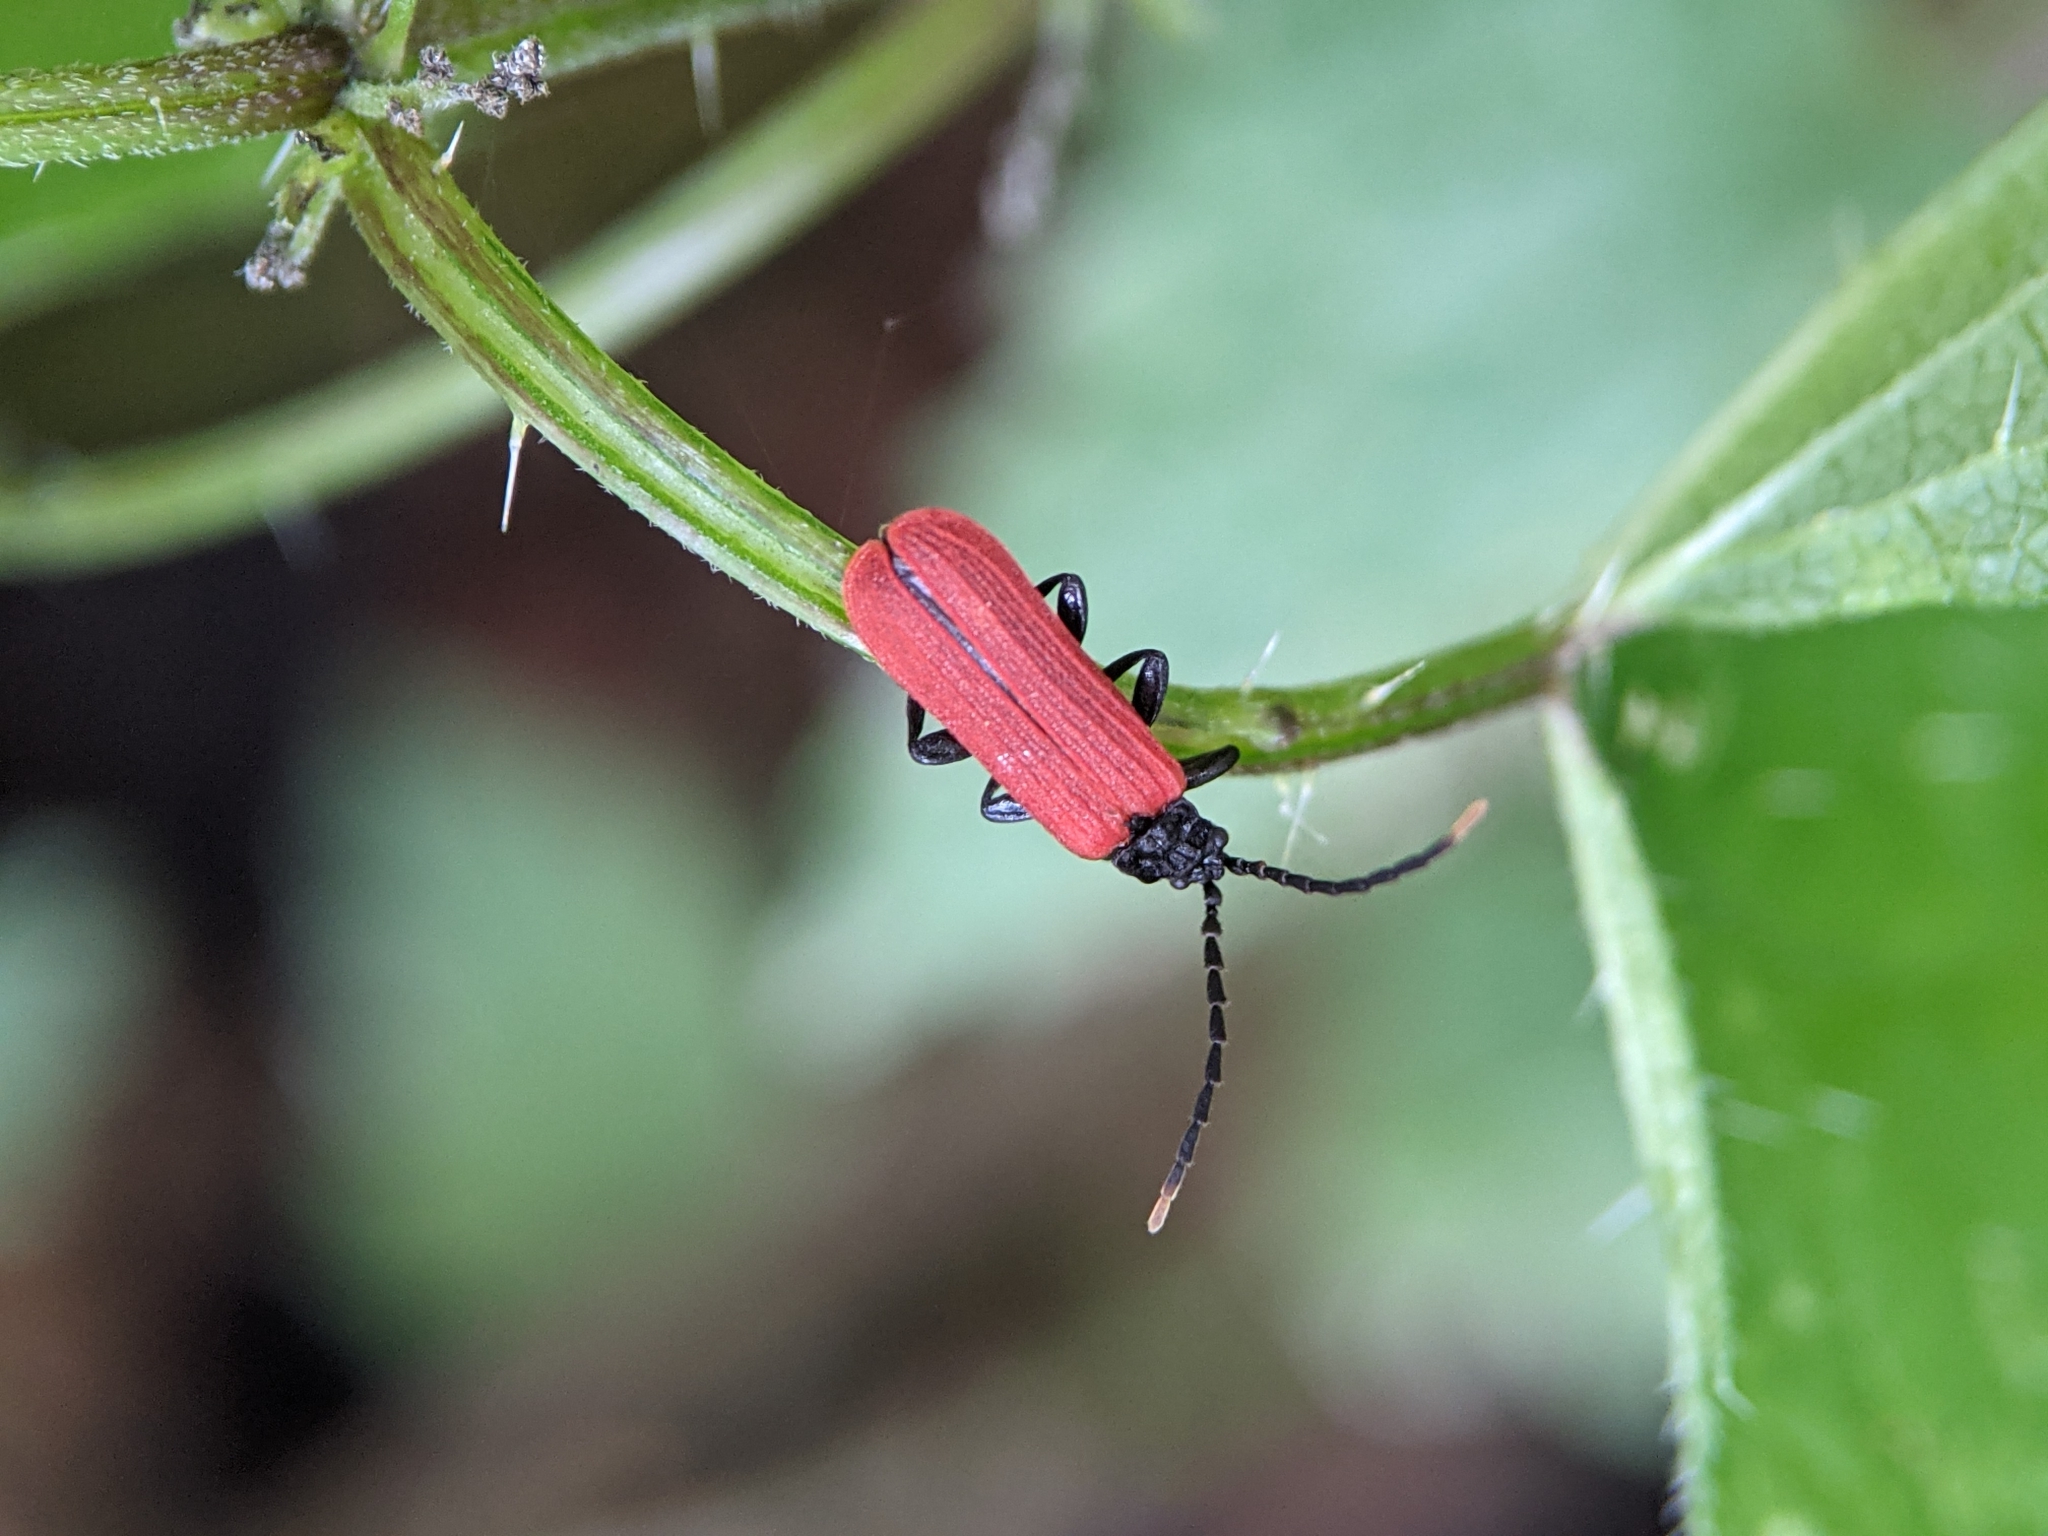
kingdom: Animalia
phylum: Arthropoda
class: Insecta
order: Coleoptera
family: Lycidae
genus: Platycis
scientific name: Platycis minutus
